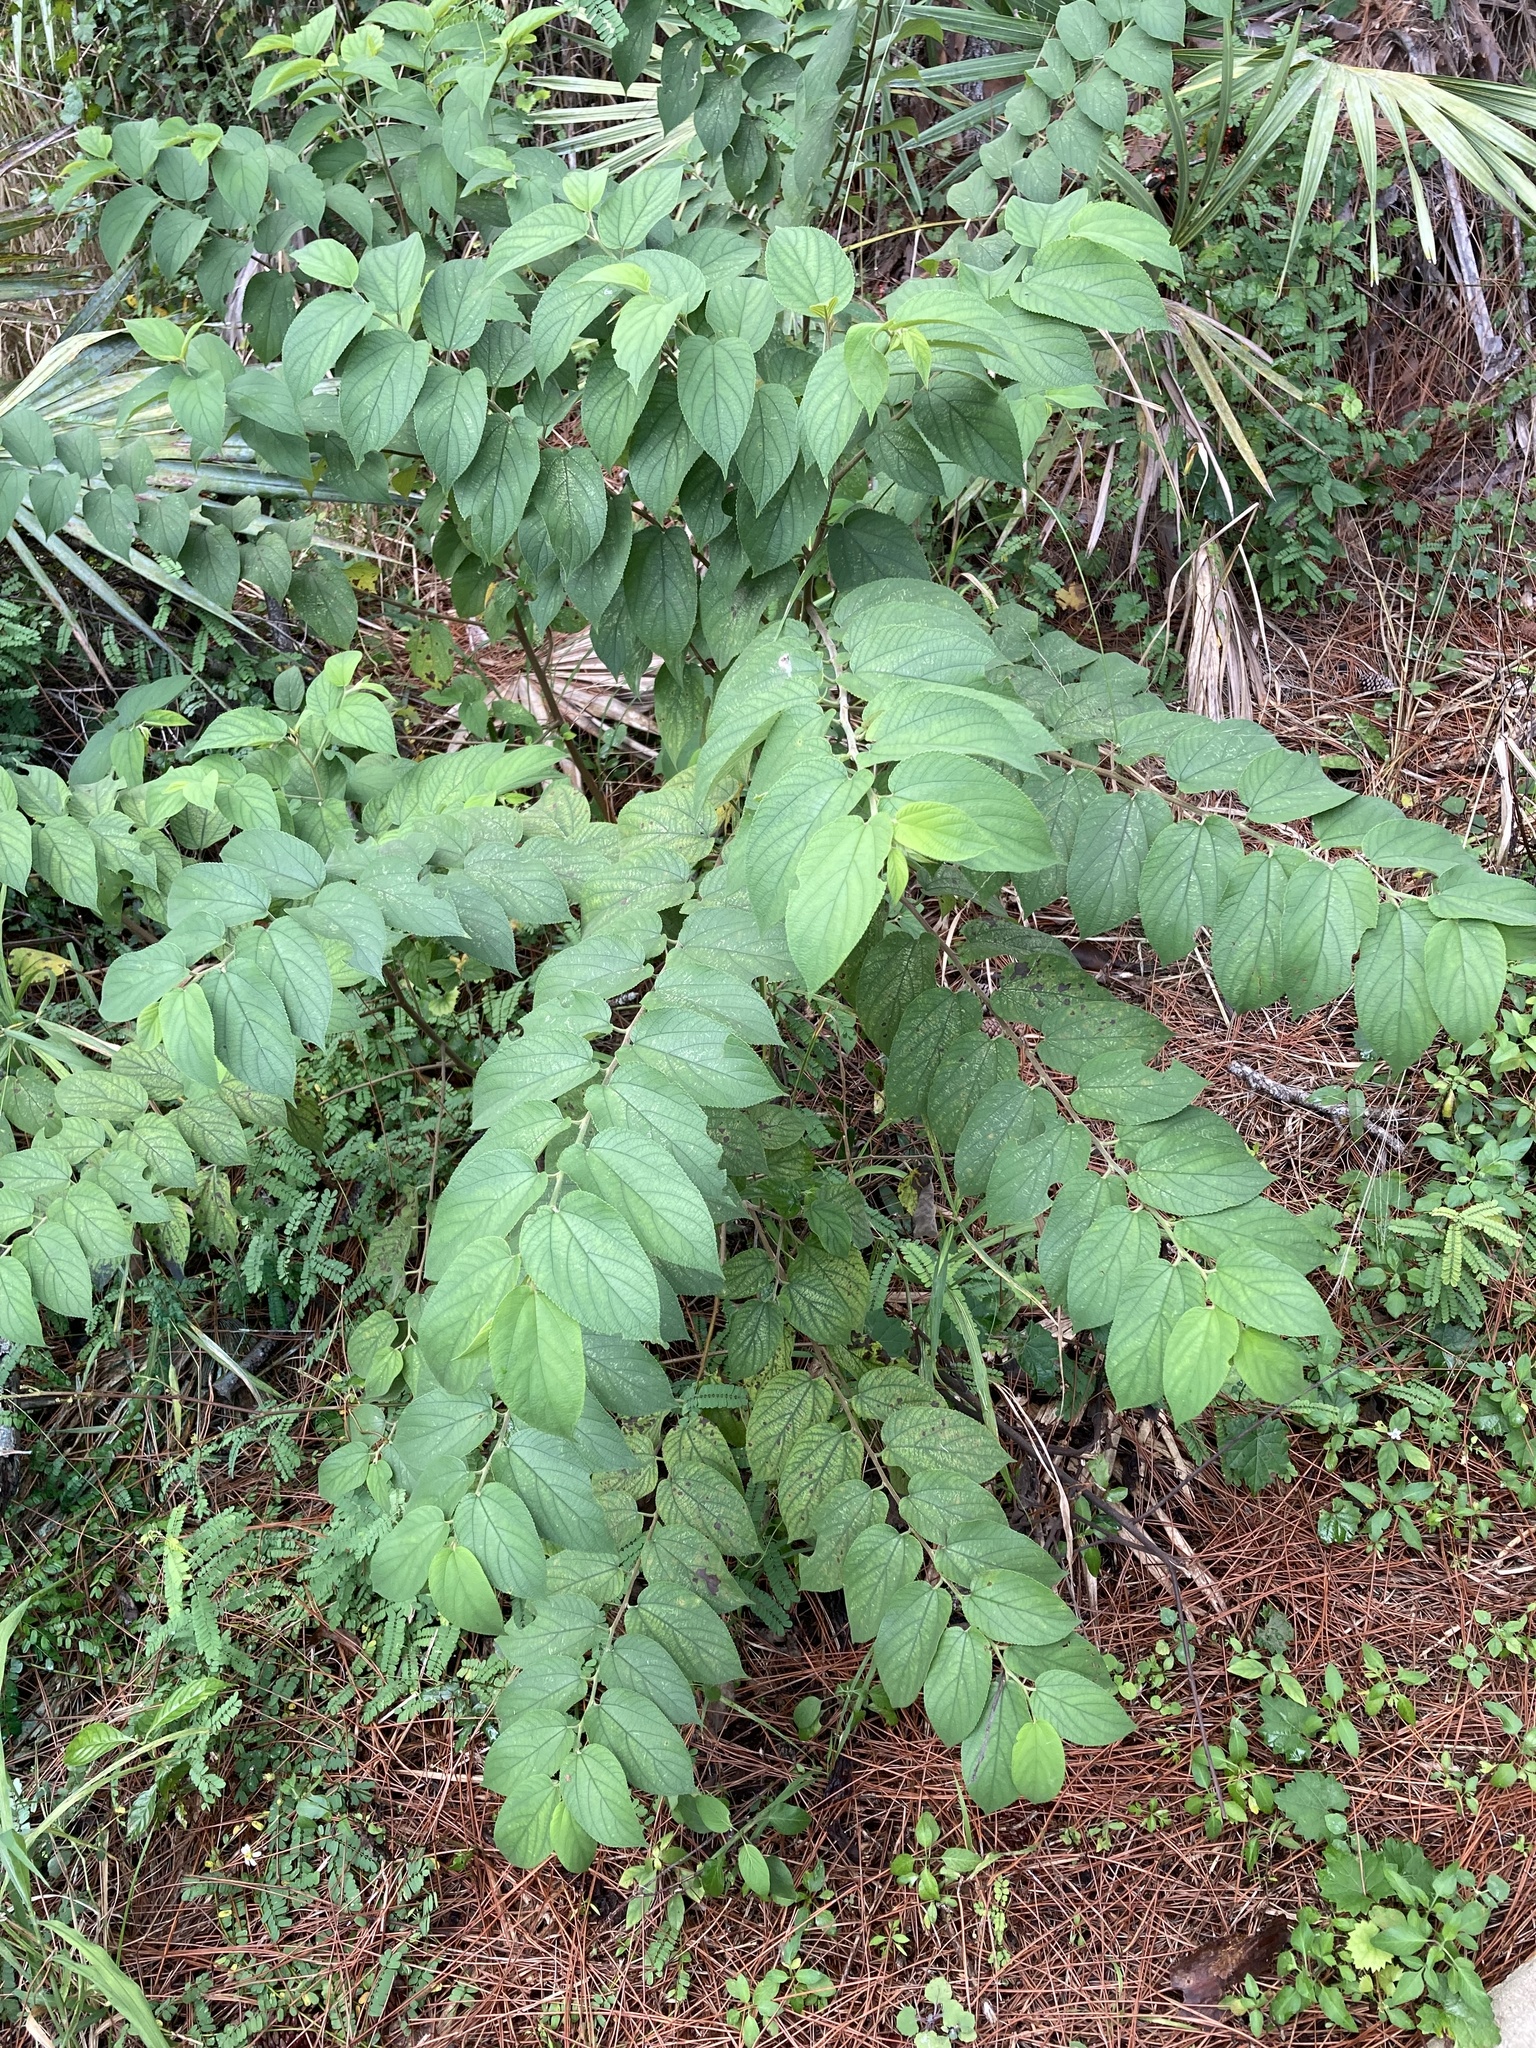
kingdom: Plantae
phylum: Tracheophyta
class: Magnoliopsida
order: Rosales
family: Cannabaceae
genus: Trema
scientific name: Trema micranthum
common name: Jamaican nettletree
